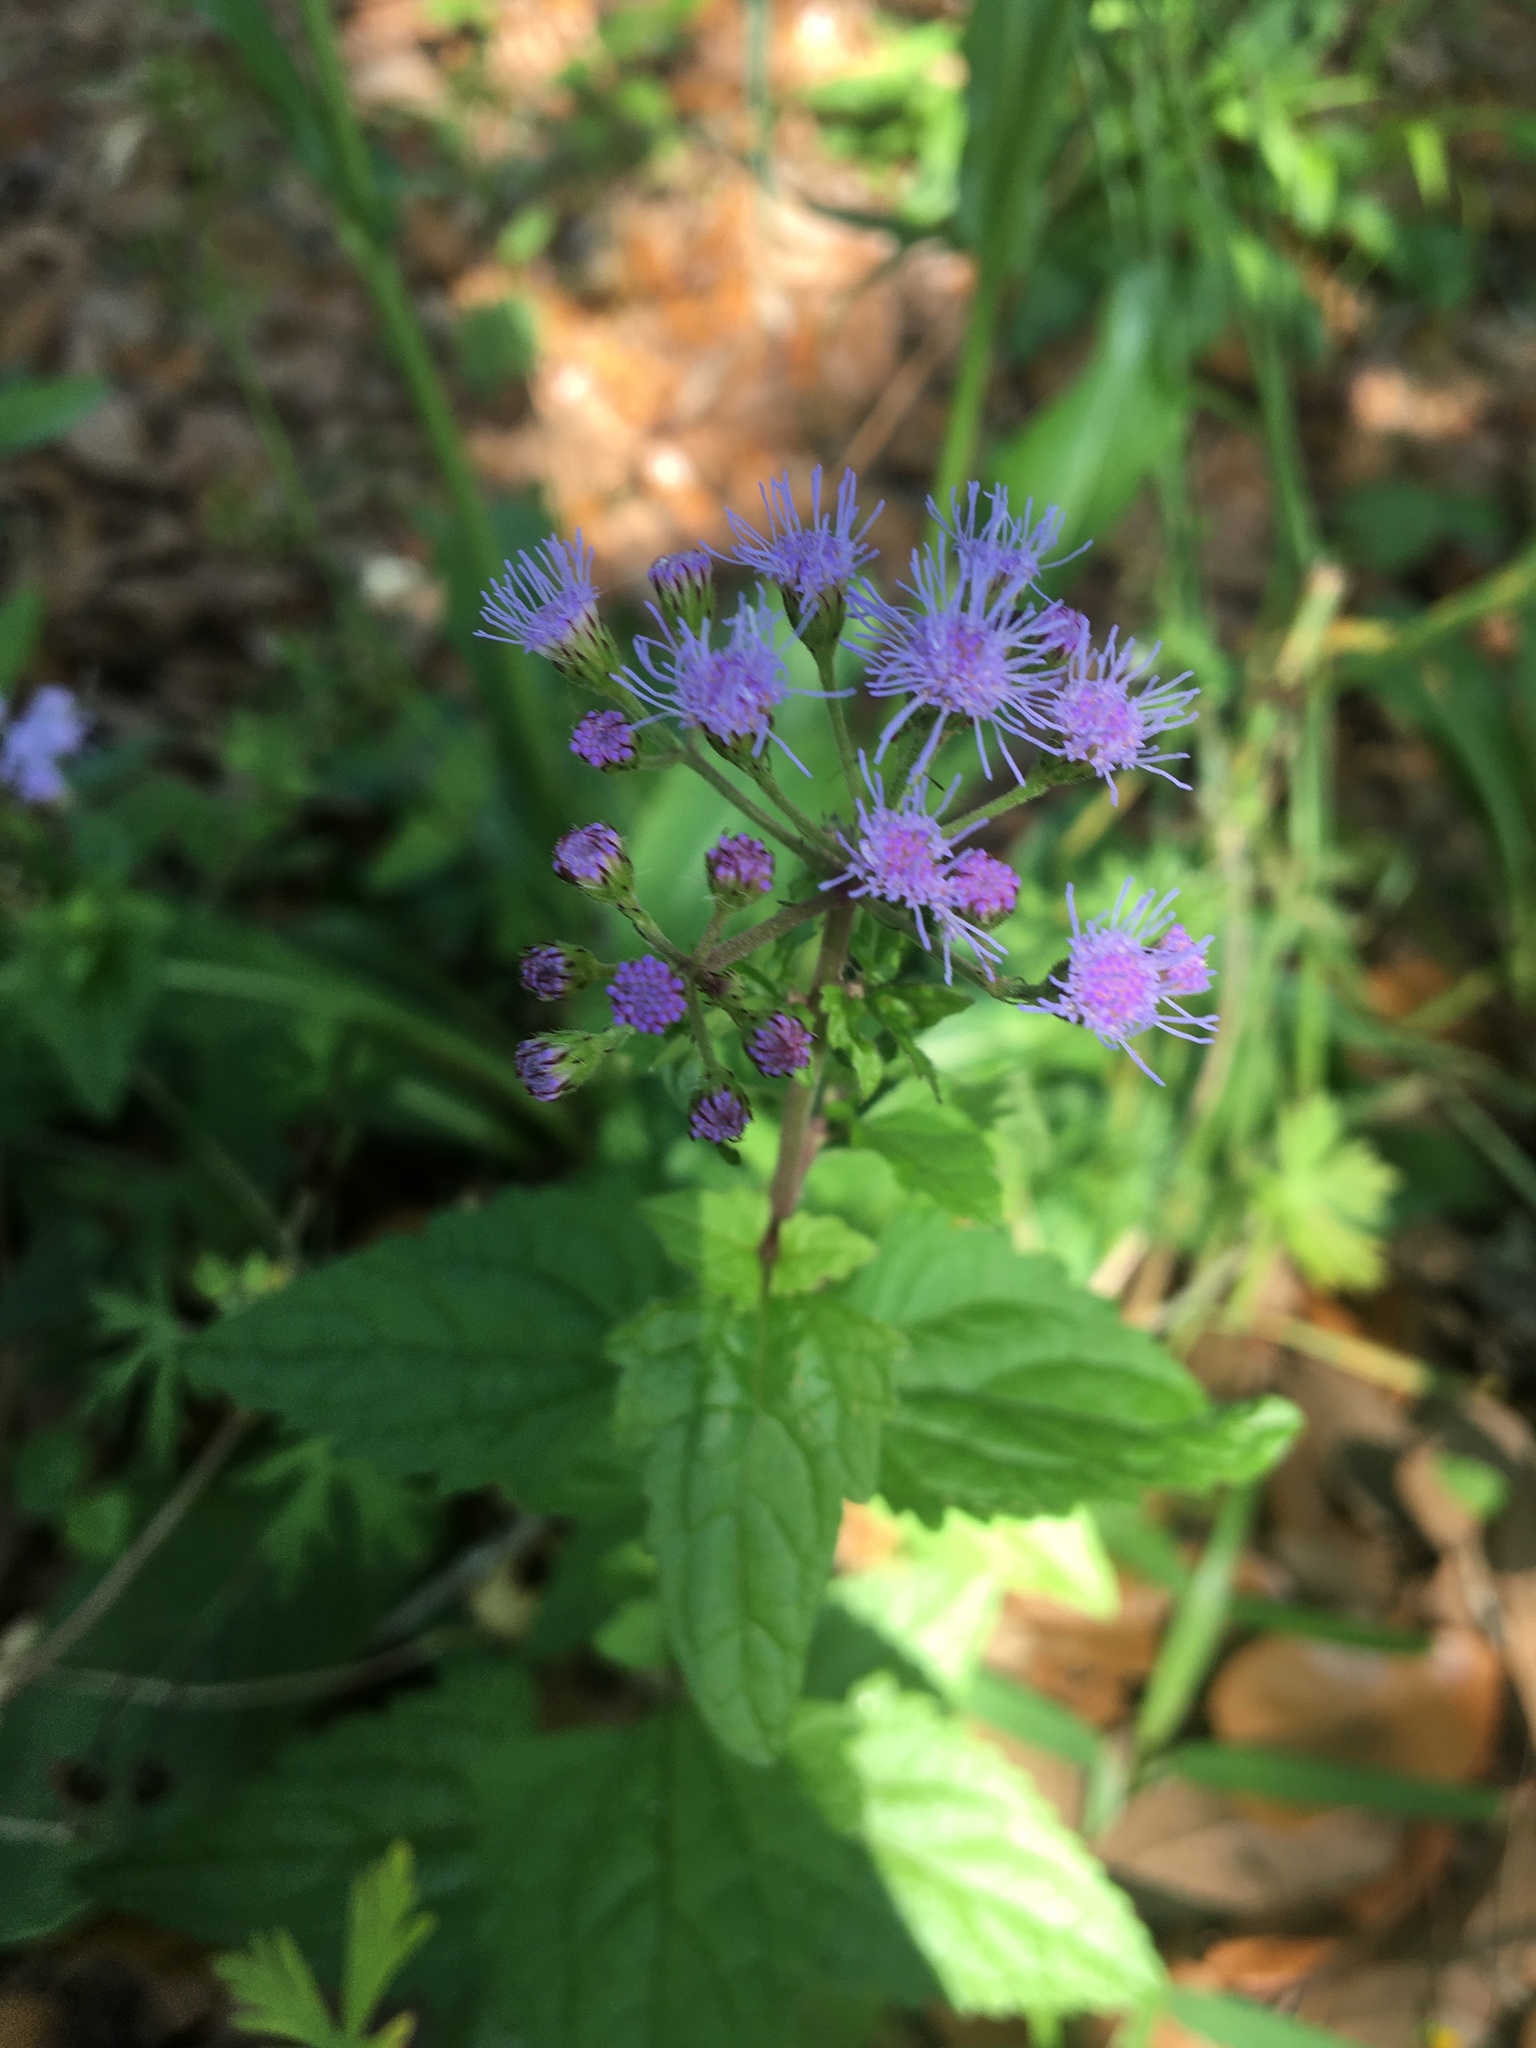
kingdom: Plantae
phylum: Tracheophyta
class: Magnoliopsida
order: Asterales
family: Asteraceae
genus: Conoclinium
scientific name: Conoclinium coelestinum
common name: Blue mistflower
